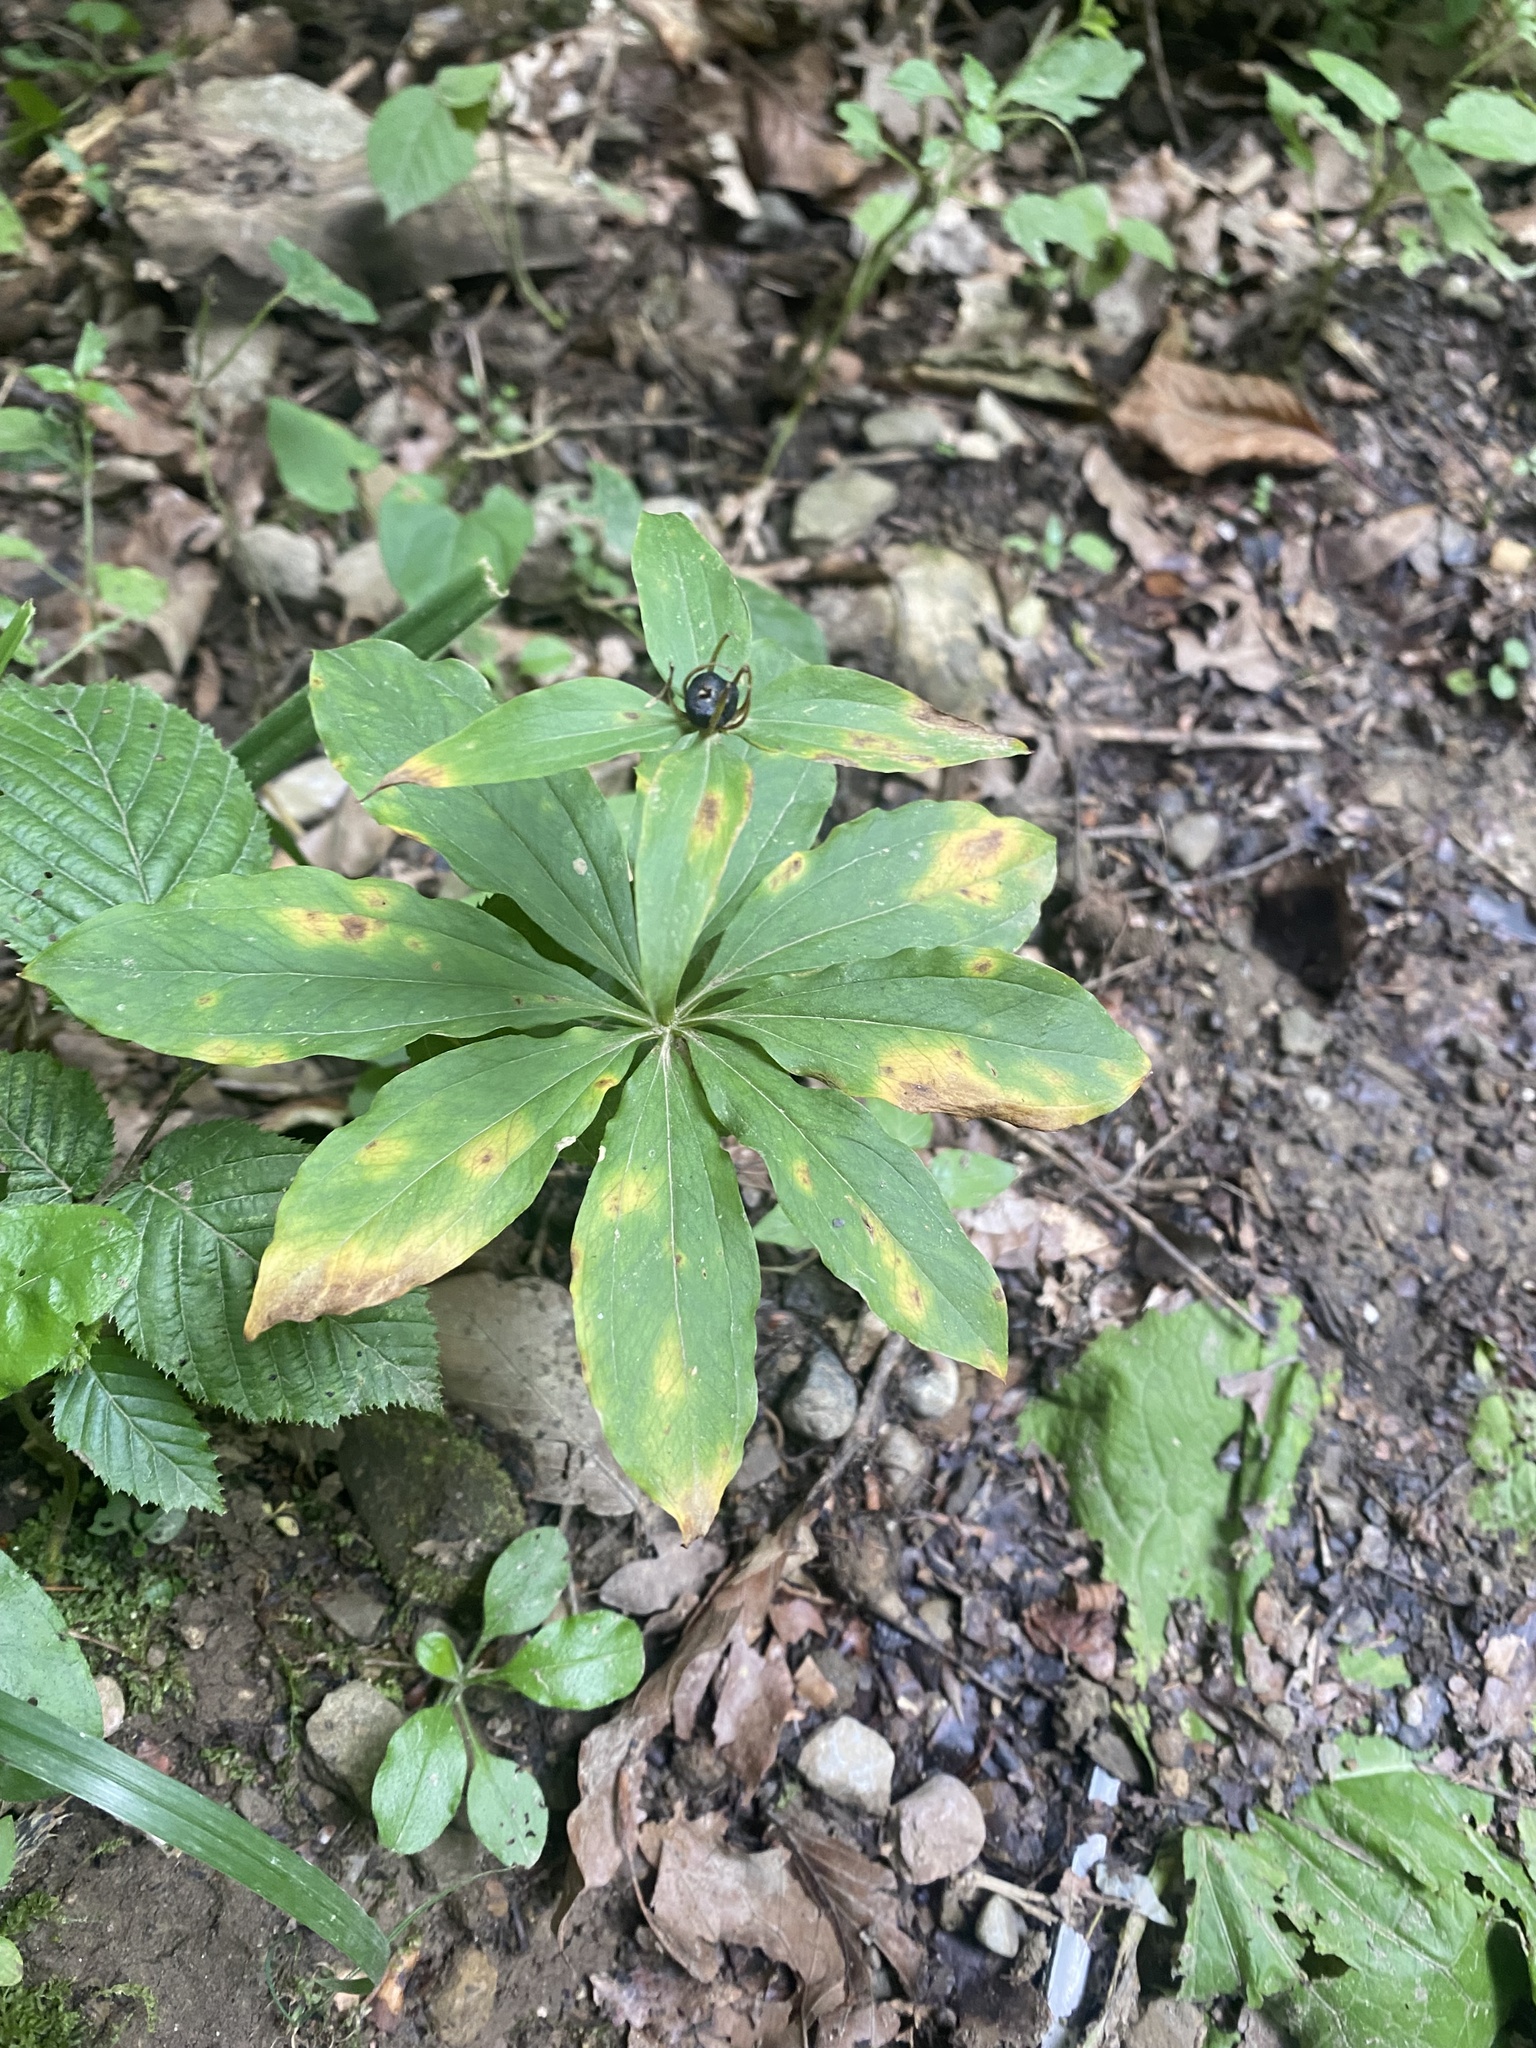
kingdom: Plantae
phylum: Tracheophyta
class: Liliopsida
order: Liliales
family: Melanthiaceae
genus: Paris
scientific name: Paris incompleta
